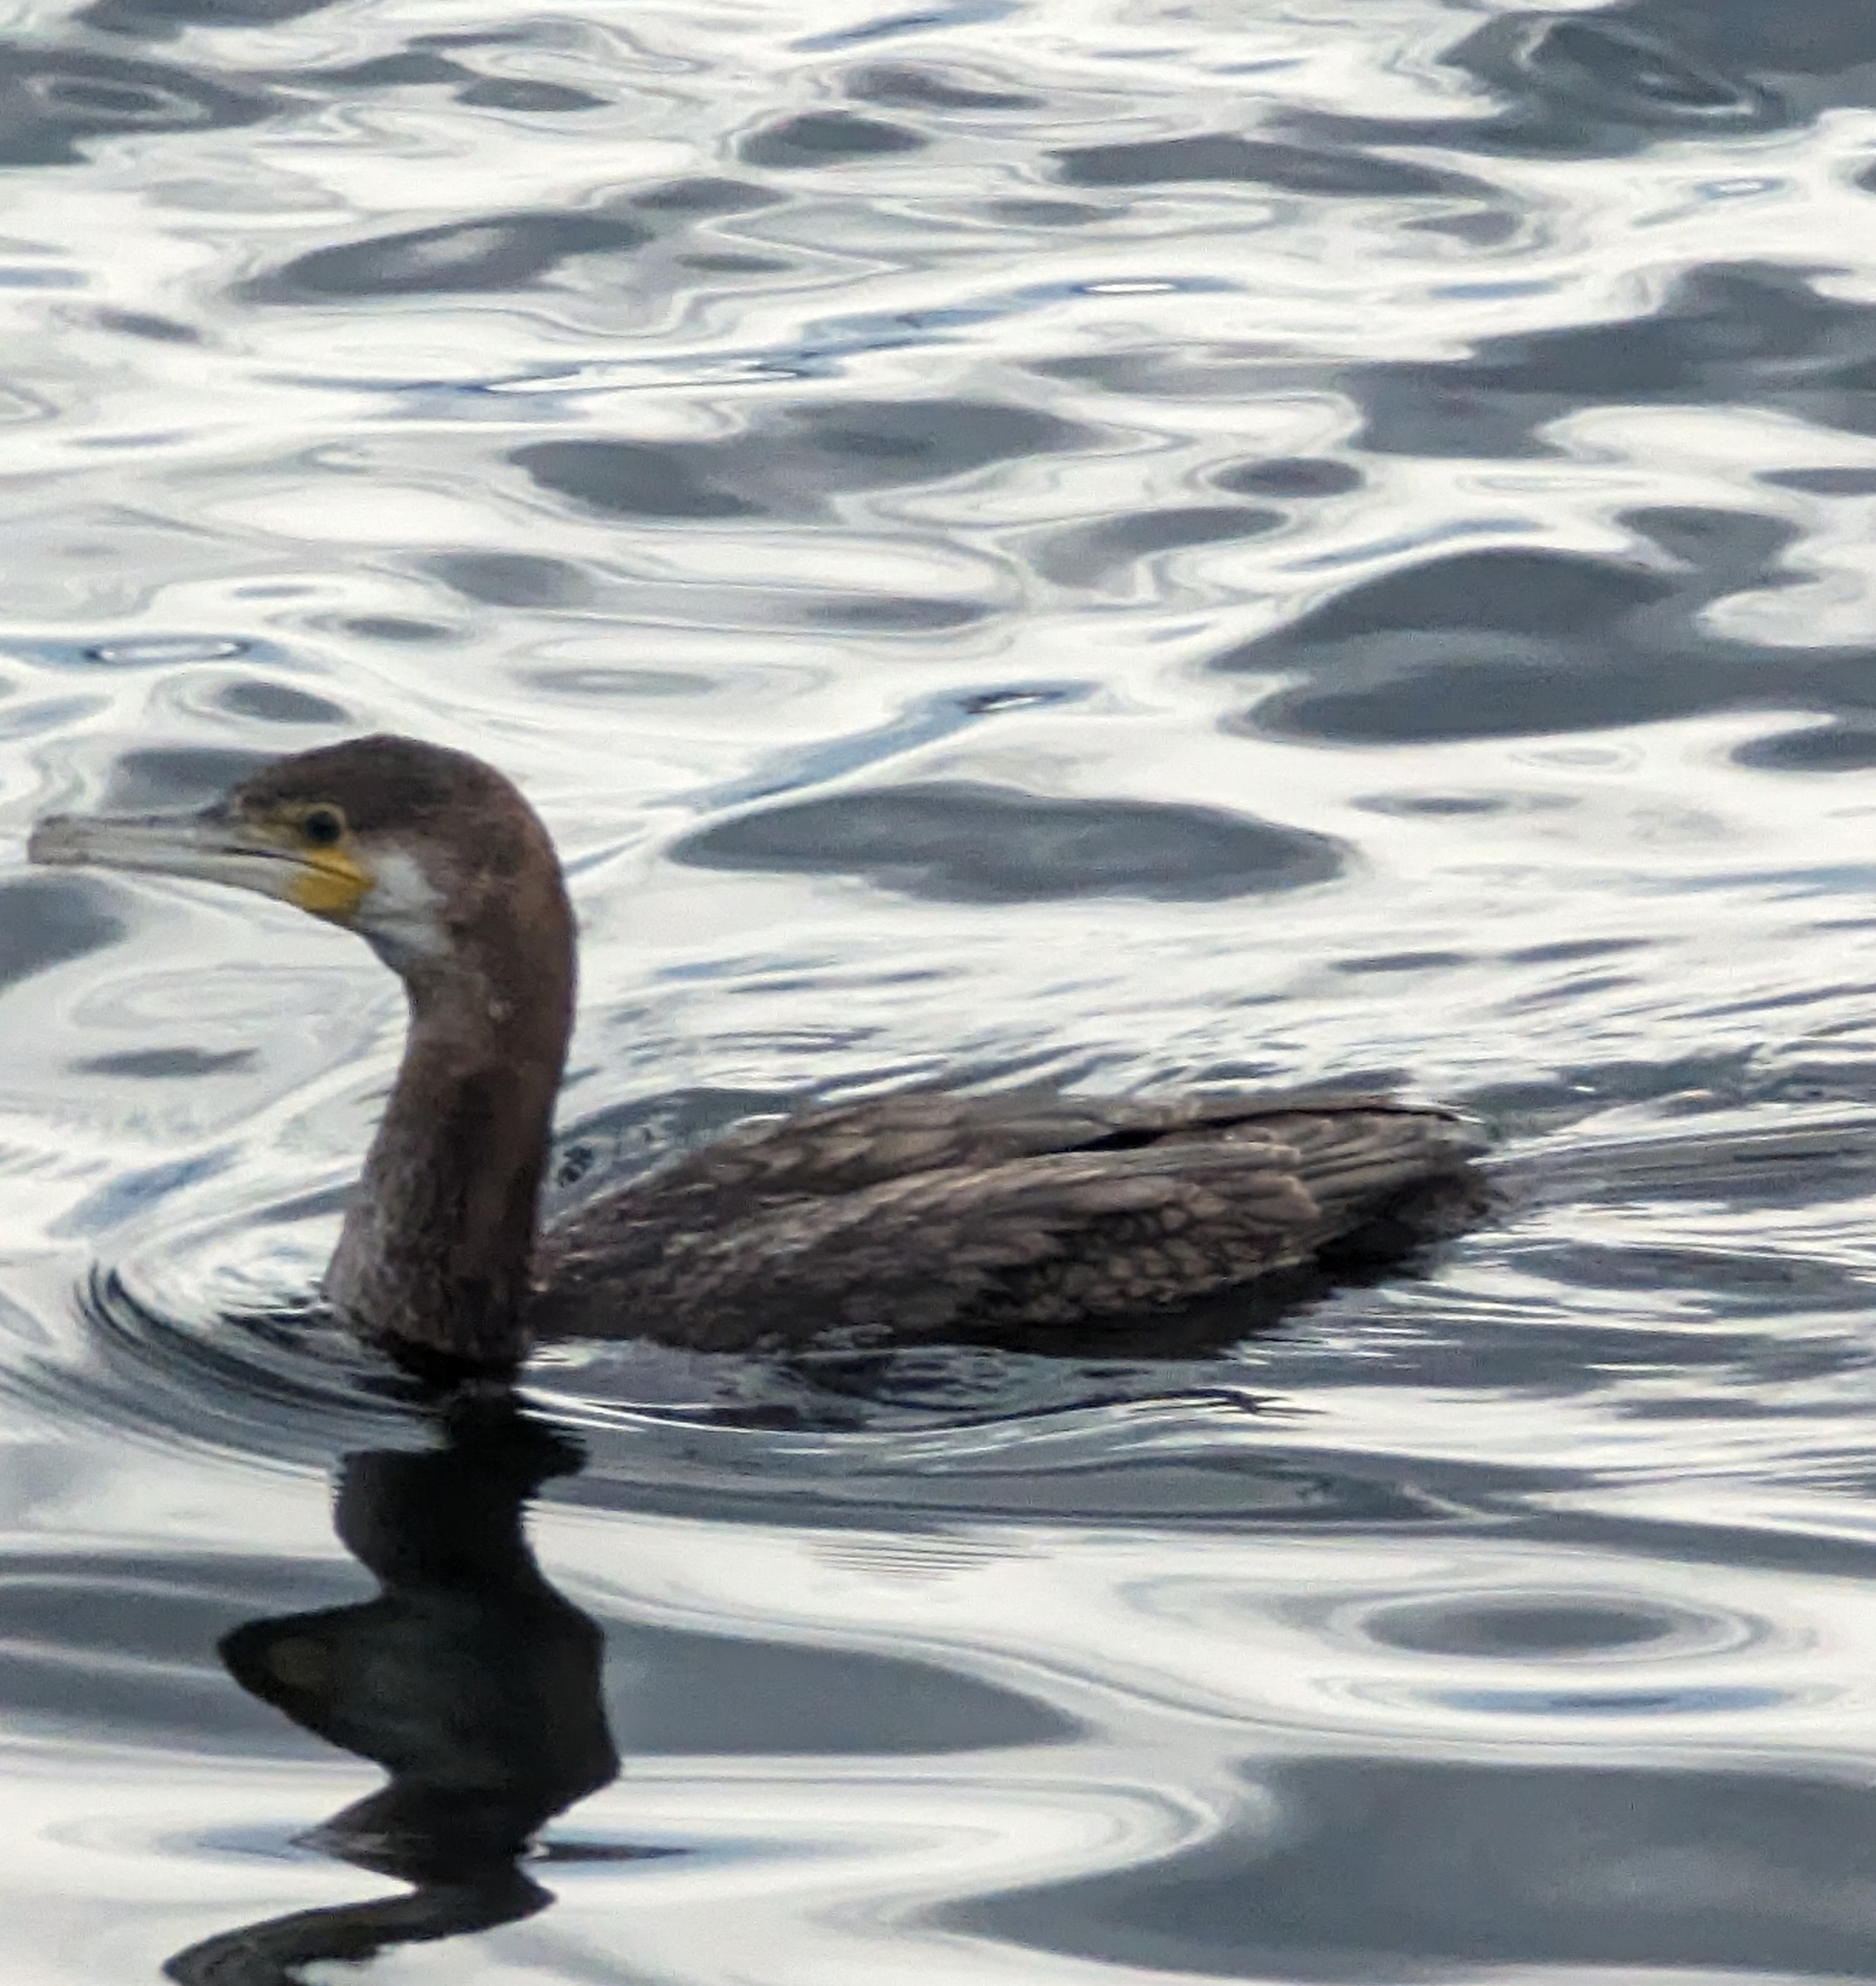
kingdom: Animalia
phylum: Chordata
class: Aves
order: Suliformes
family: Phalacrocoracidae
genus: Phalacrocorax
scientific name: Phalacrocorax carbo
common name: Great cormorant
